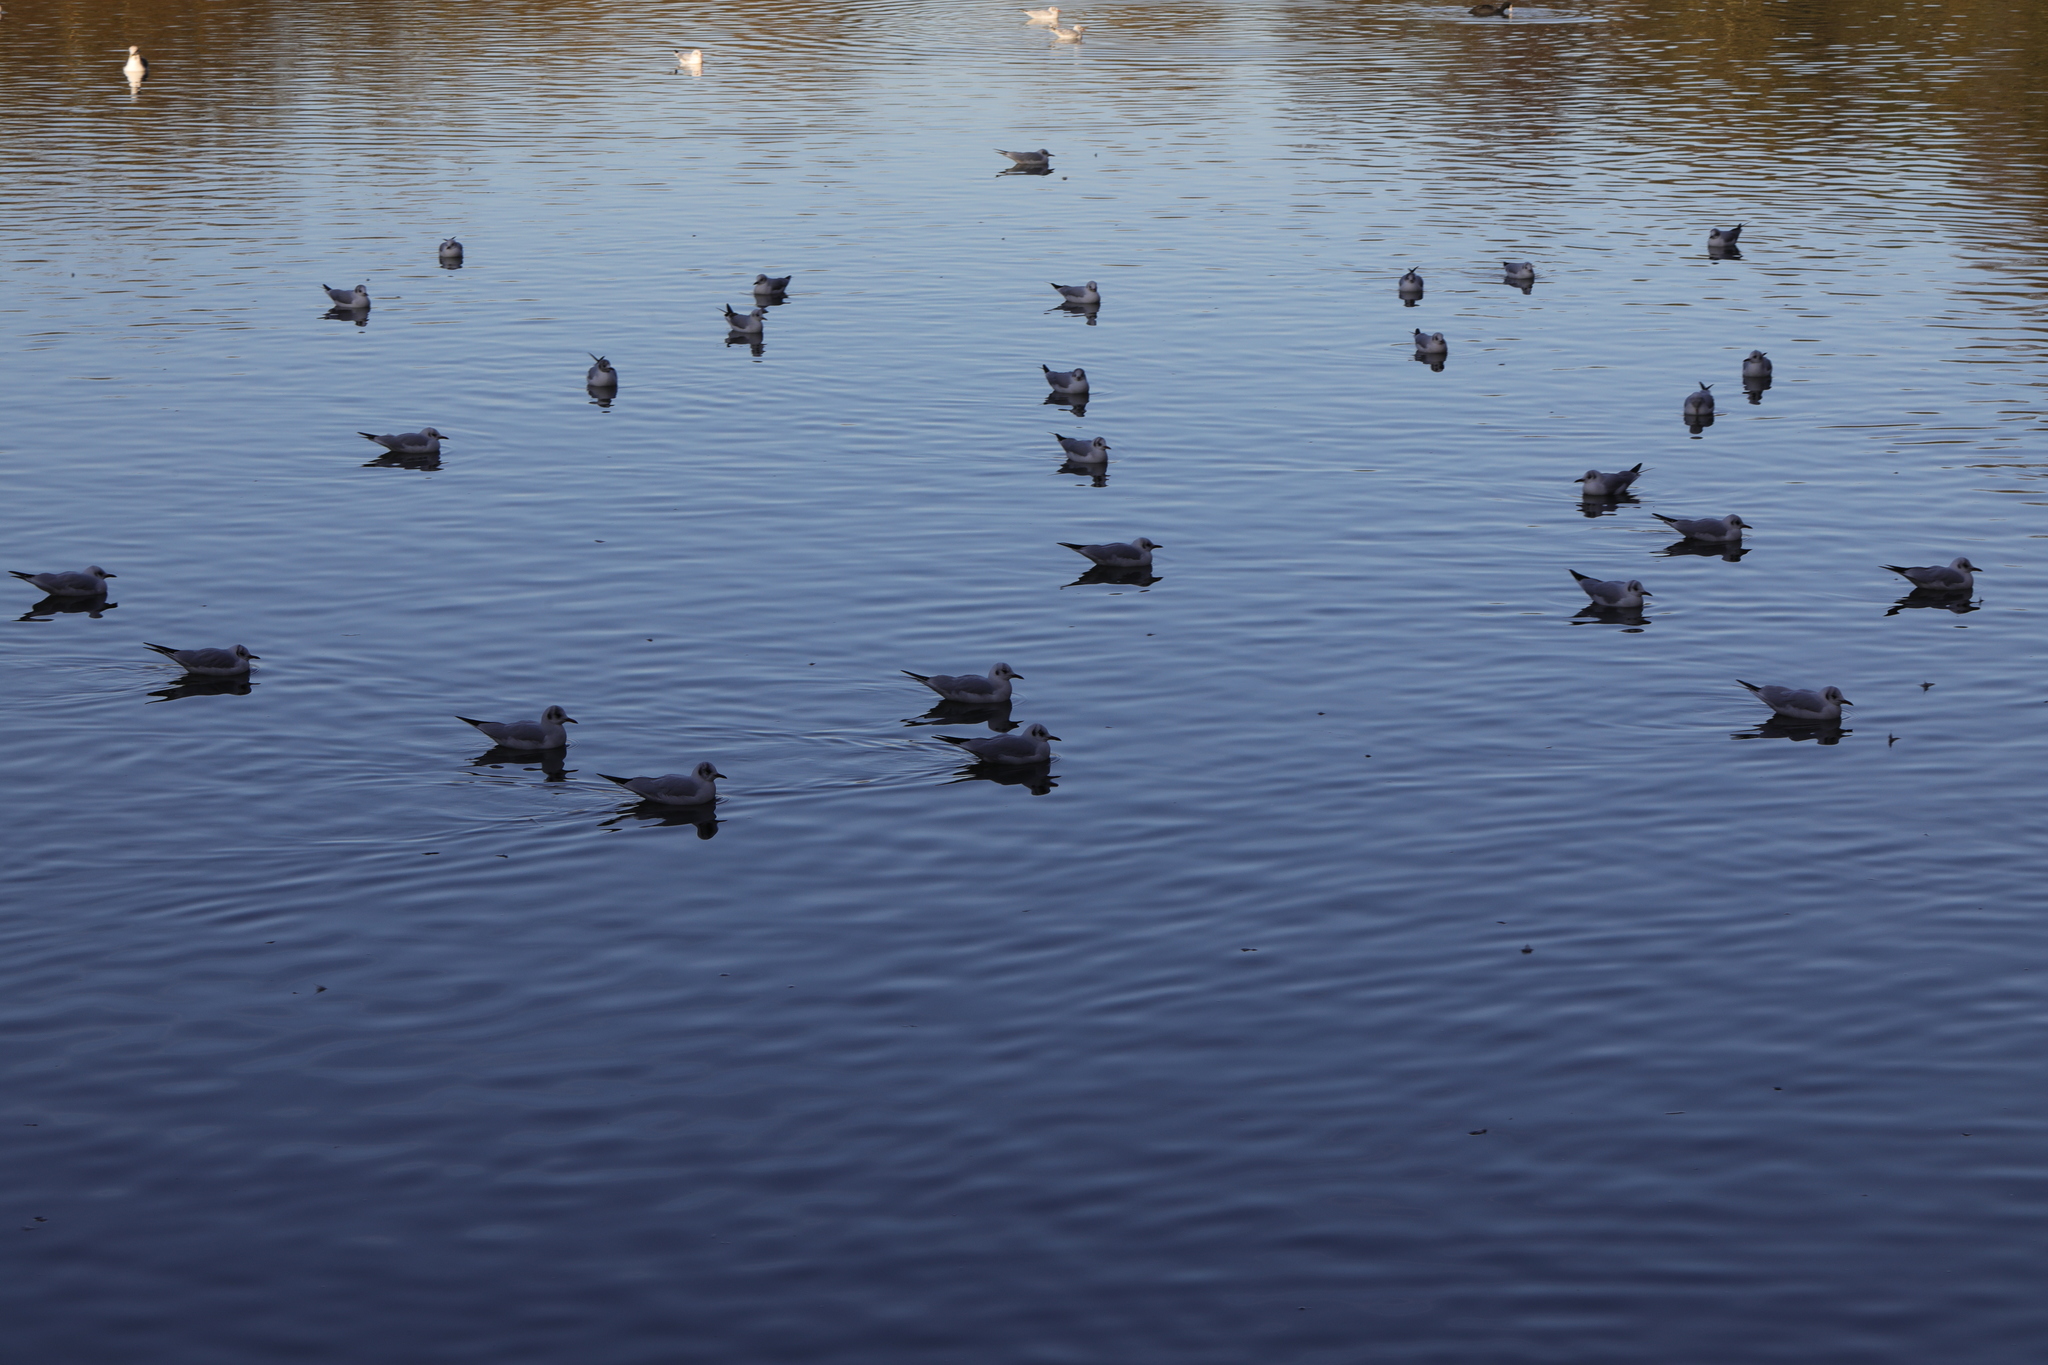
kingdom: Animalia
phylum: Chordata
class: Aves
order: Charadriiformes
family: Laridae
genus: Chroicocephalus
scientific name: Chroicocephalus ridibundus
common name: Black-headed gull
